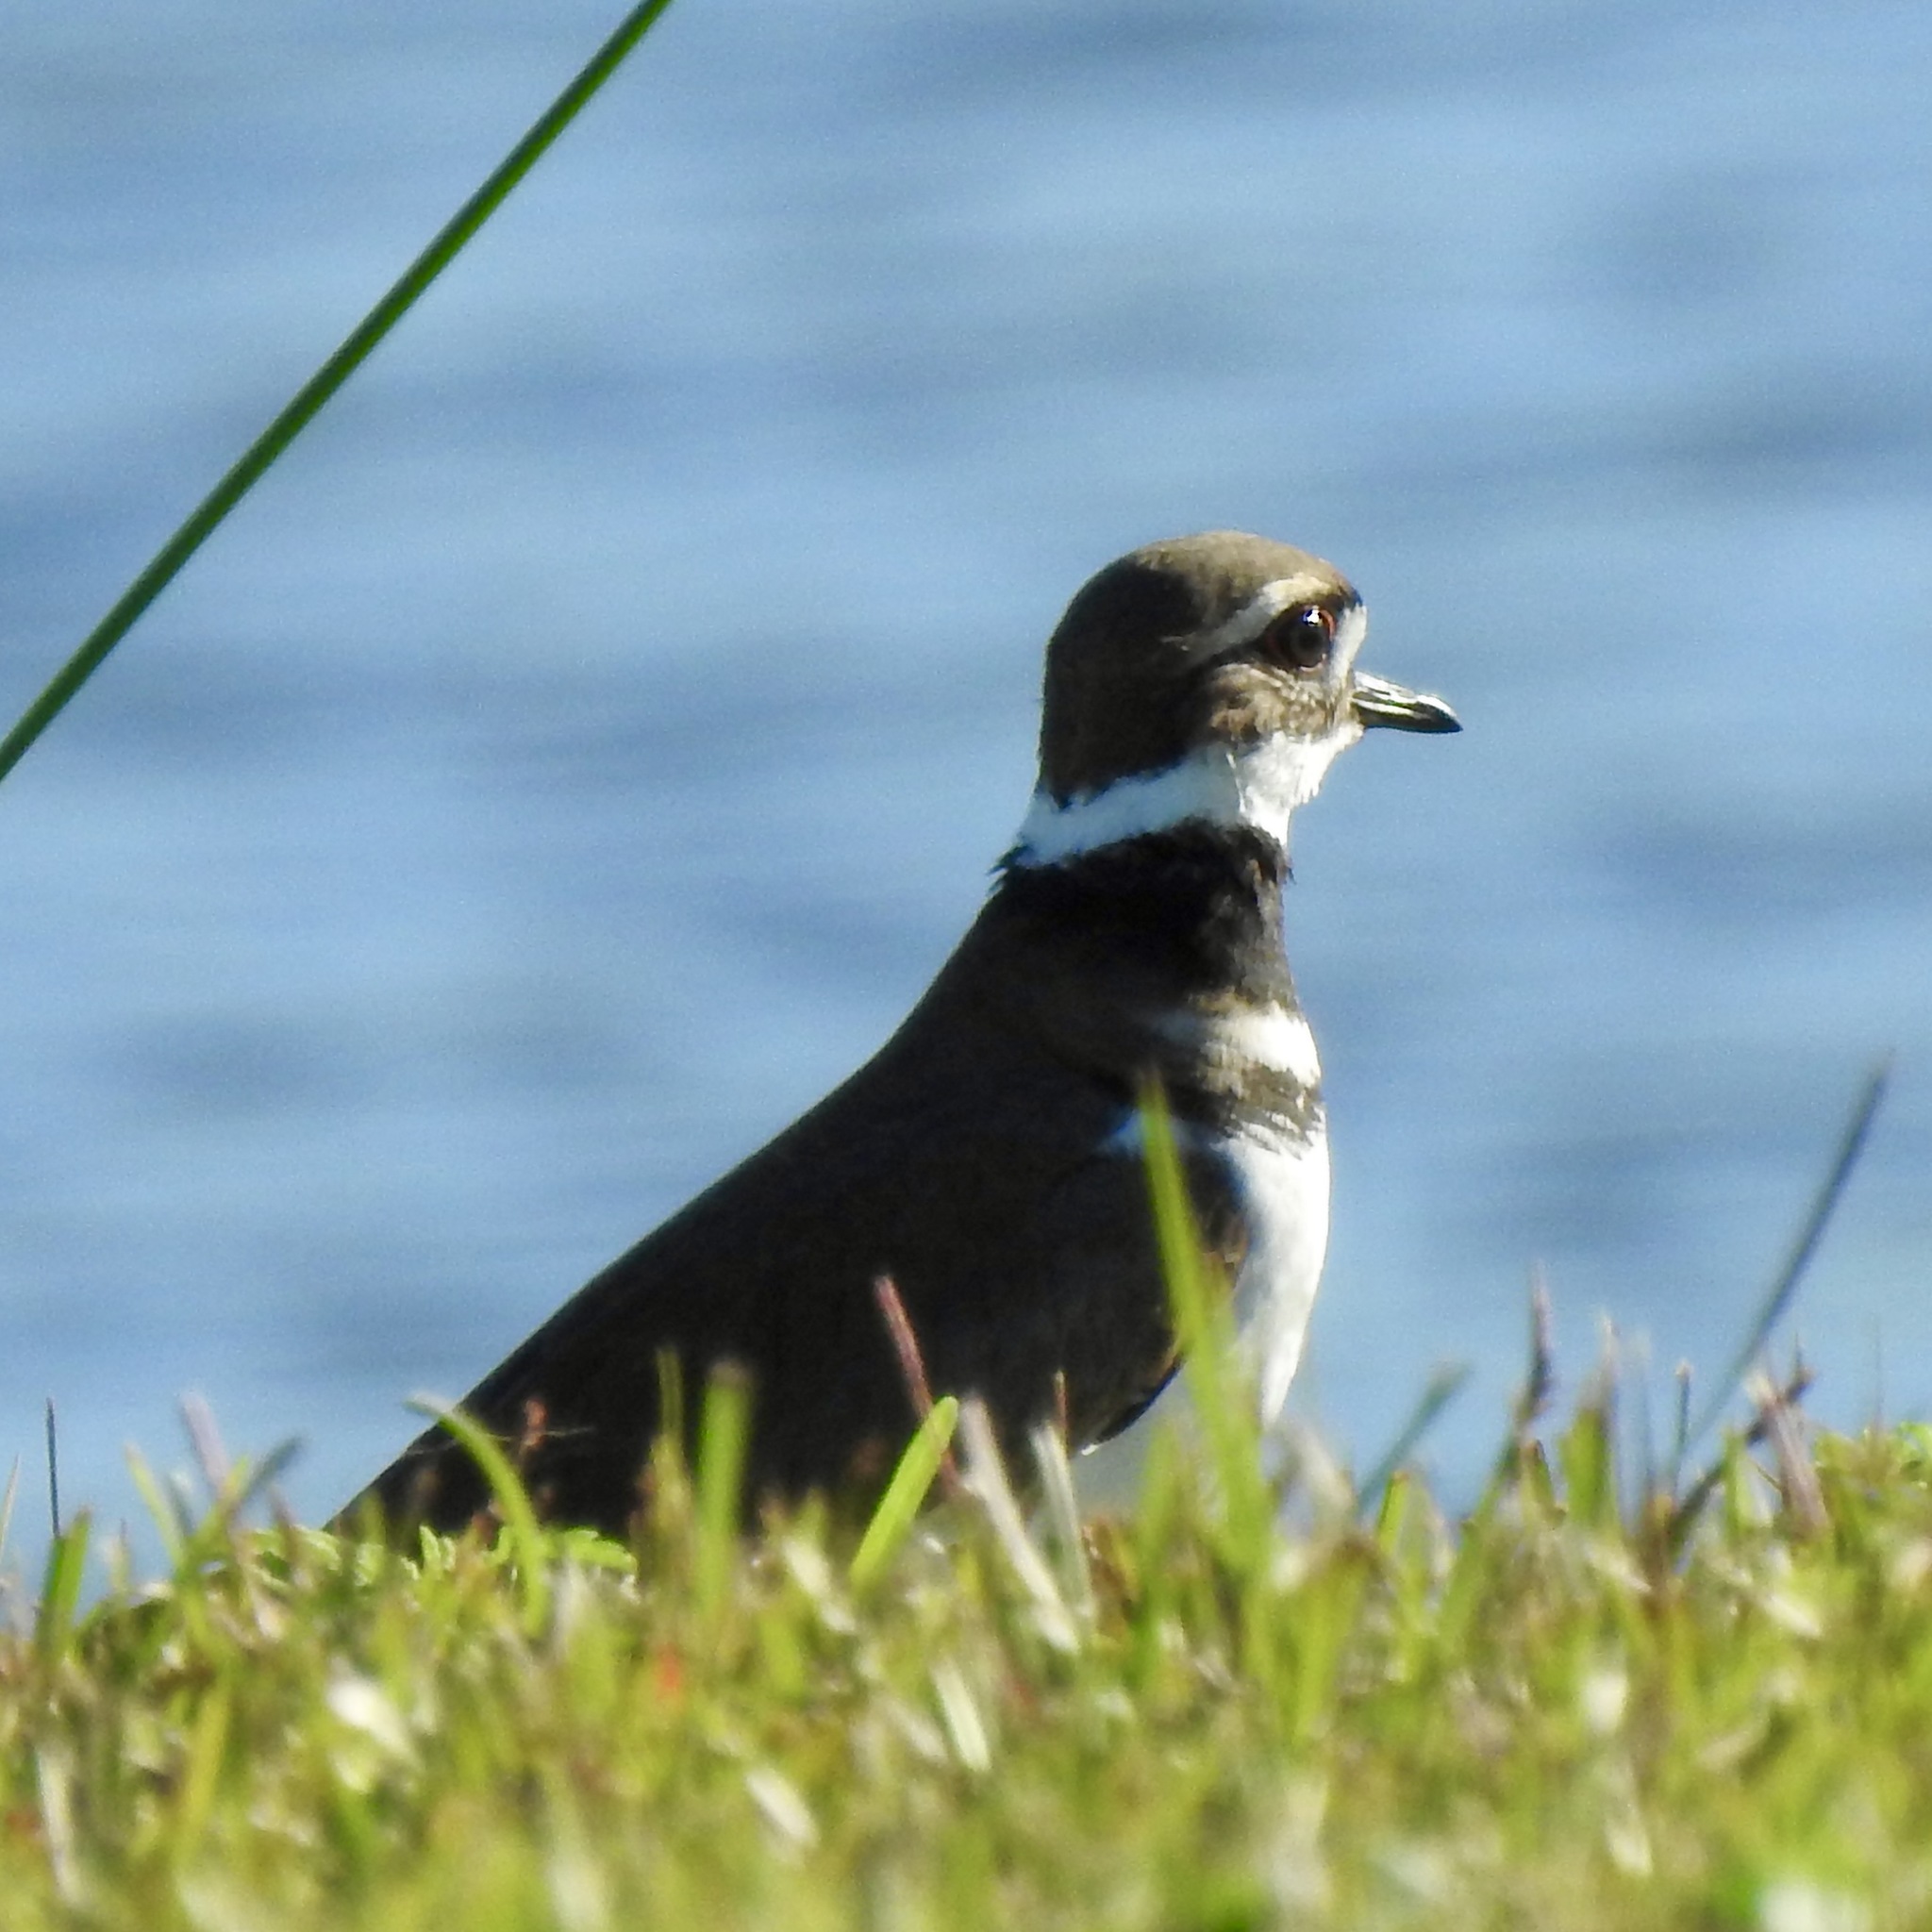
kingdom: Animalia
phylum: Chordata
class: Aves
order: Charadriiformes
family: Charadriidae
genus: Charadrius
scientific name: Charadrius vociferus
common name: Killdeer
